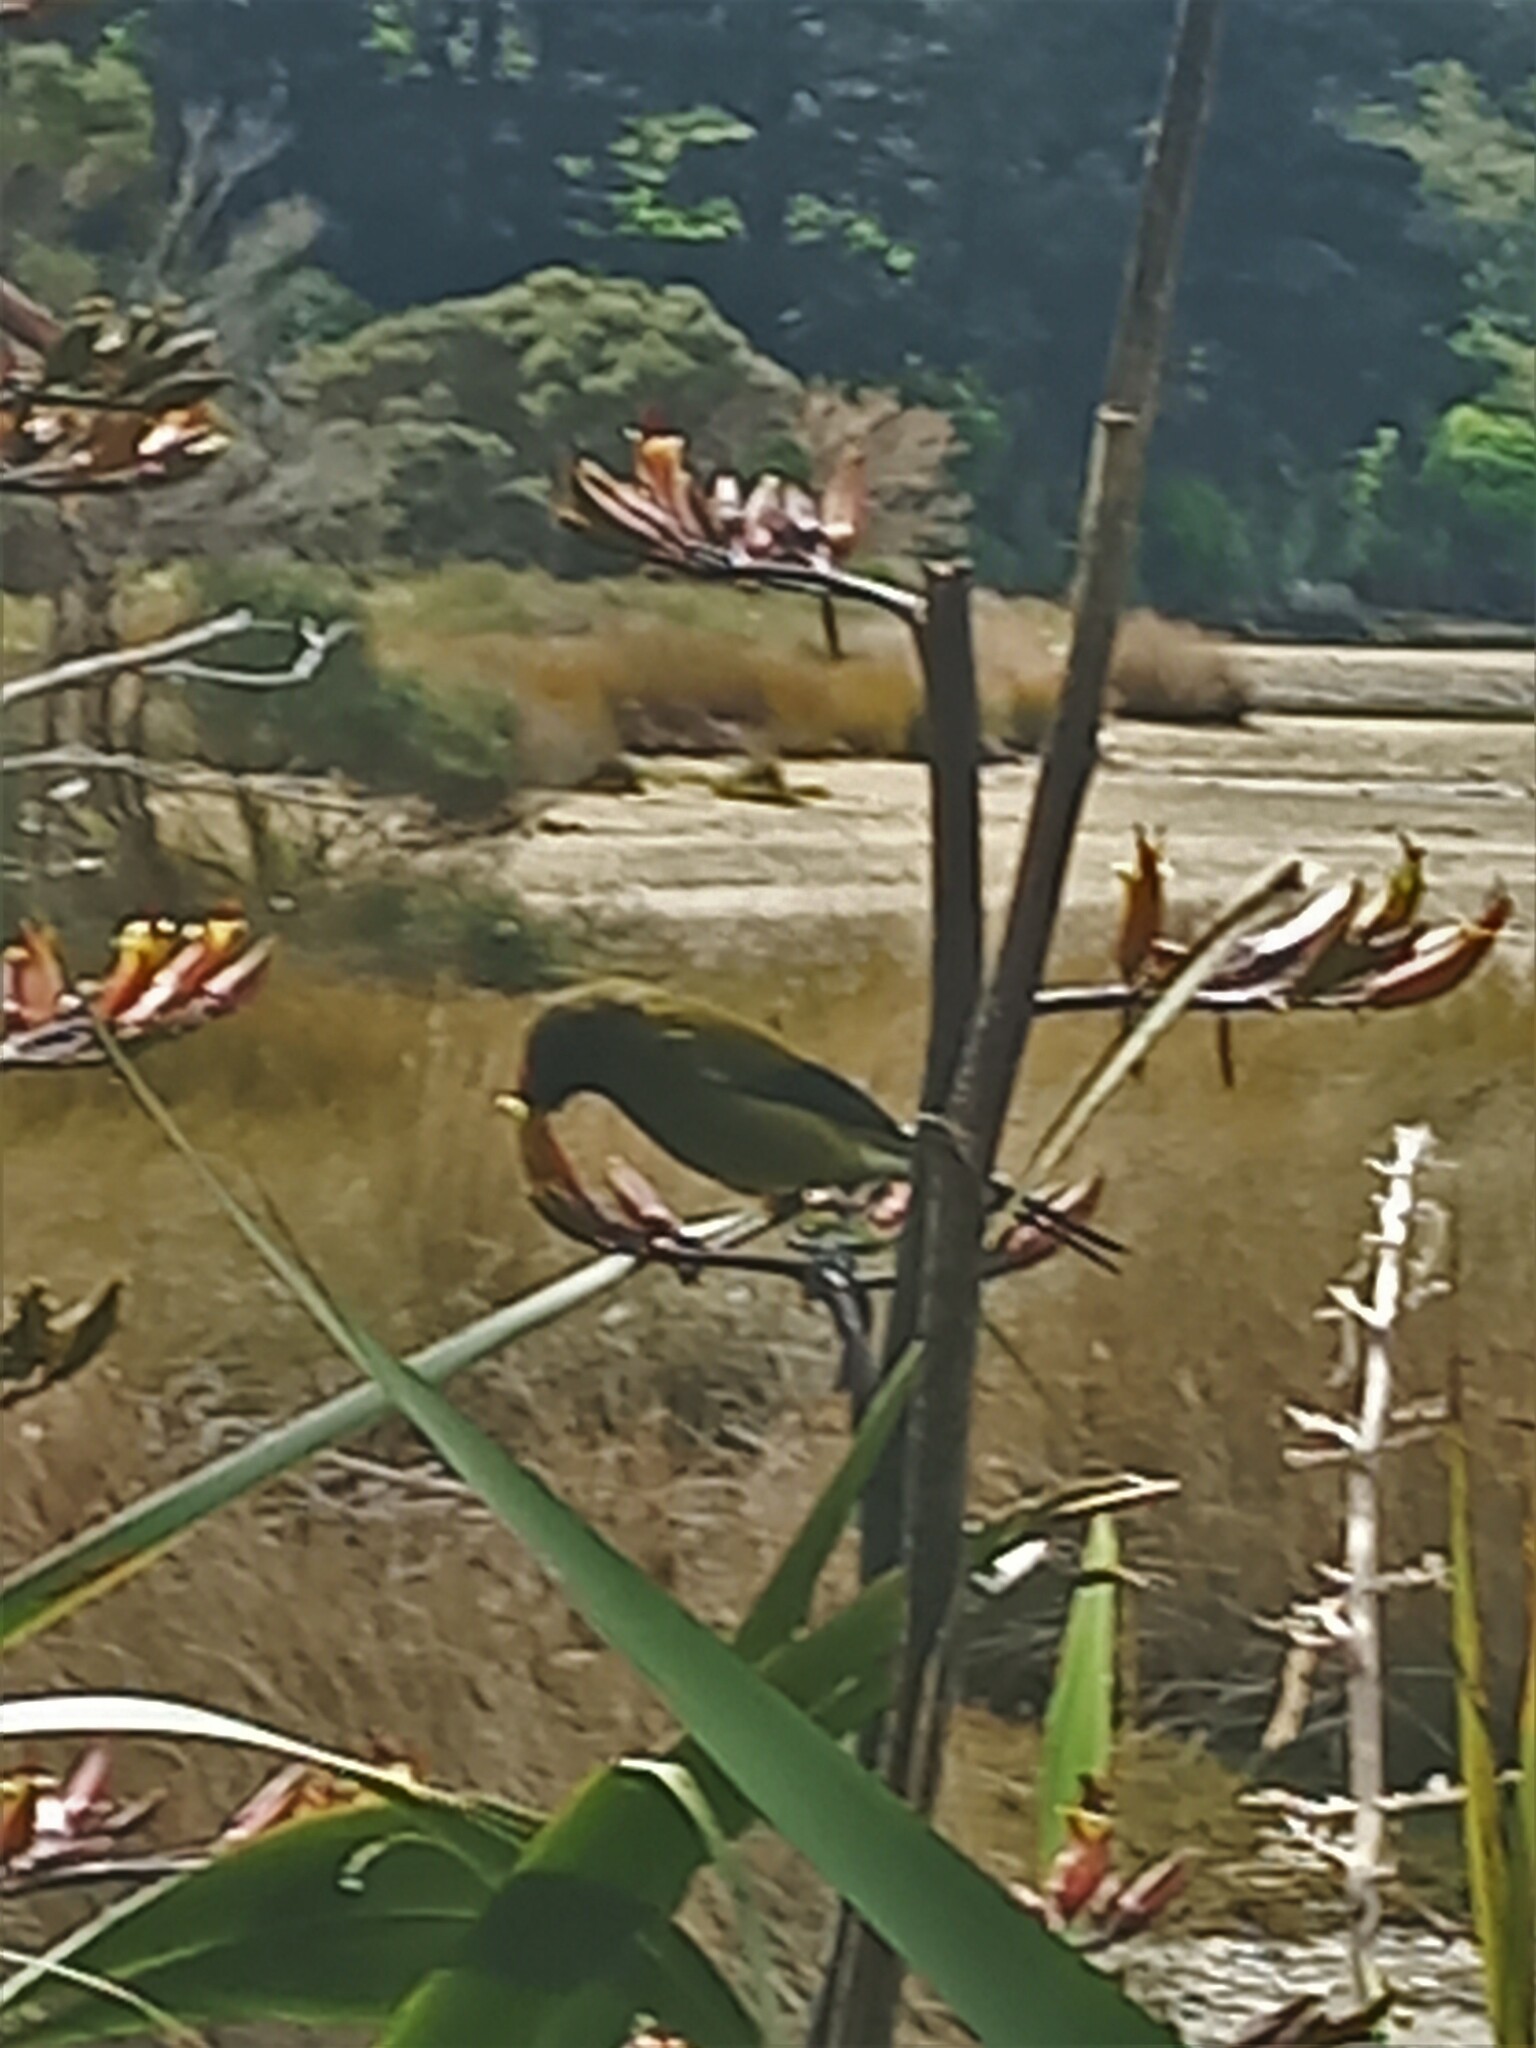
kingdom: Animalia
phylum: Chordata
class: Aves
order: Passeriformes
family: Meliphagidae
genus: Anthornis
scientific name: Anthornis melanura
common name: New zealand bellbird
